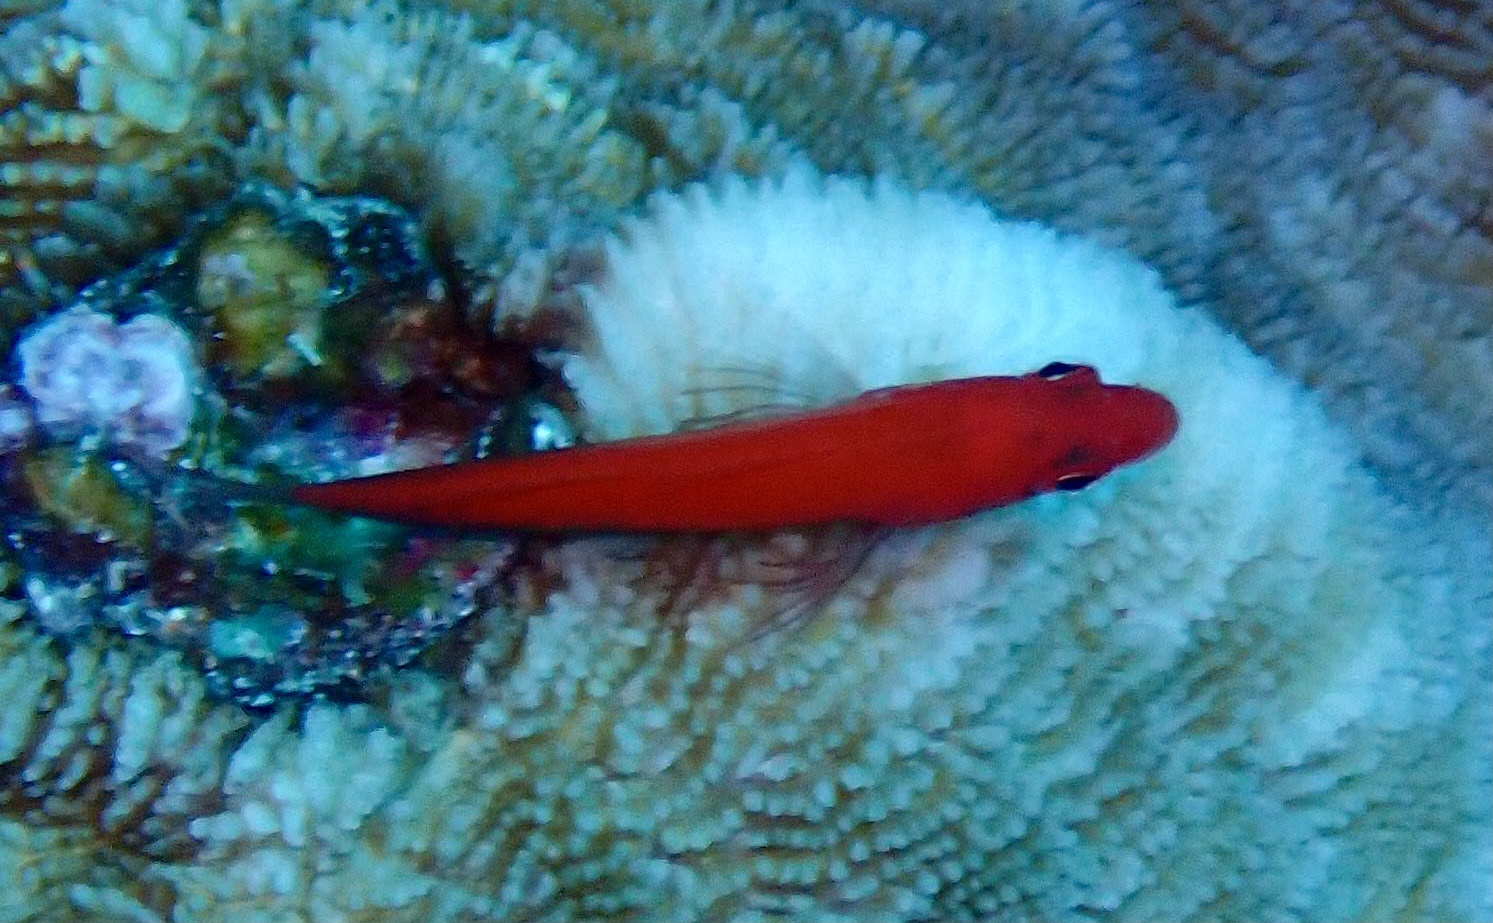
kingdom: Animalia
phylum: Chordata
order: Perciformes
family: Cirrhitidae
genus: Paracirrhites
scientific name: Paracirrhites forsteri
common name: Freckled hawkfish
